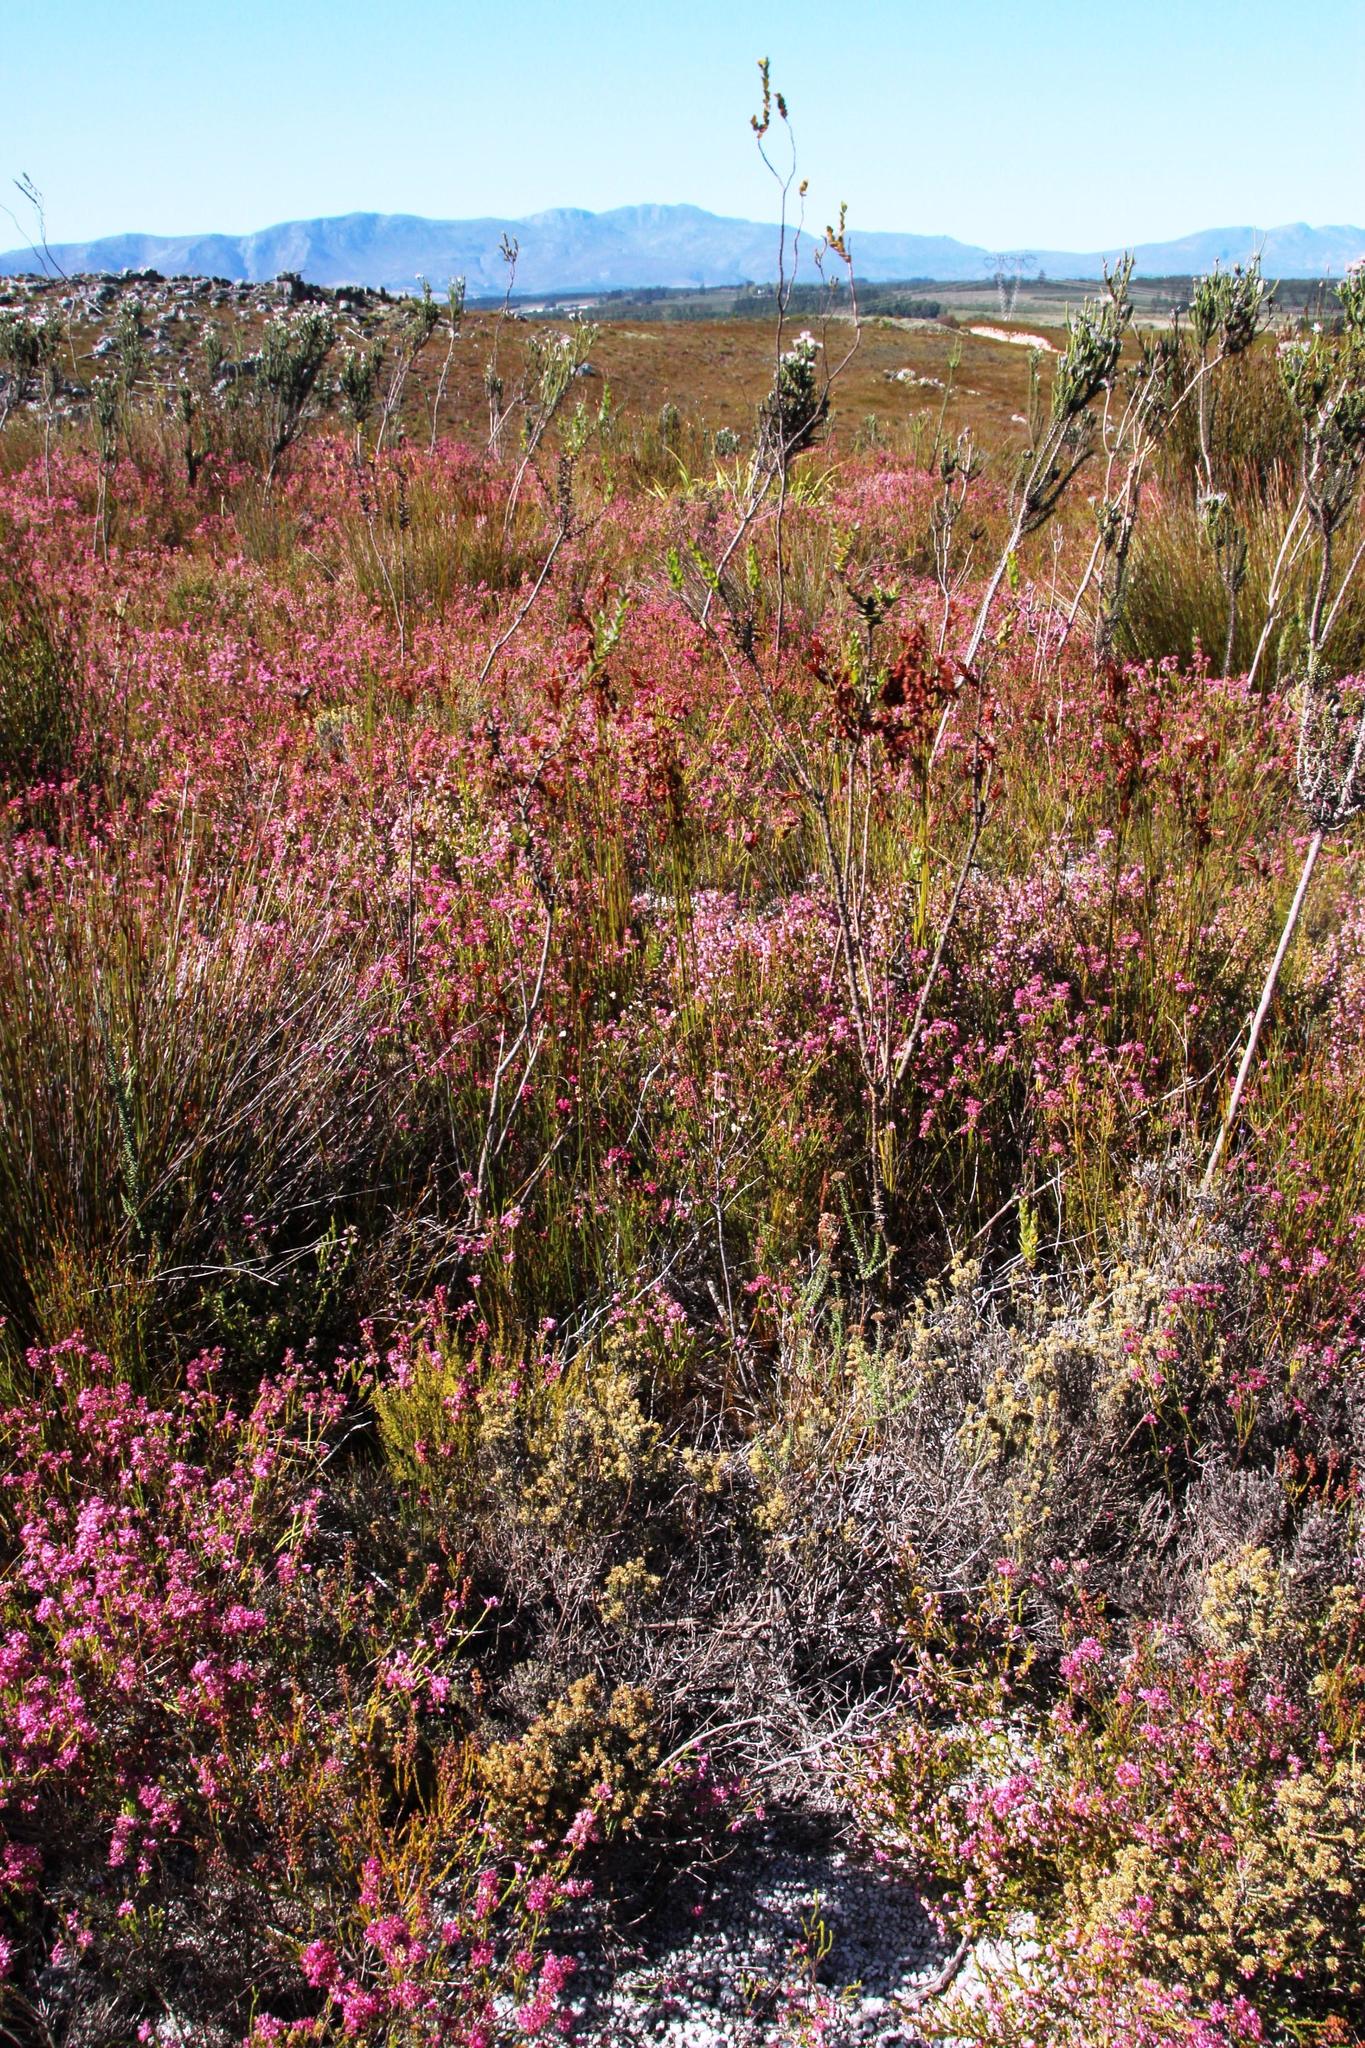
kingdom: Plantae
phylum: Tracheophyta
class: Magnoliopsida
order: Asterales
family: Asteraceae
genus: Phaenocoma
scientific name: Phaenocoma prolifera
